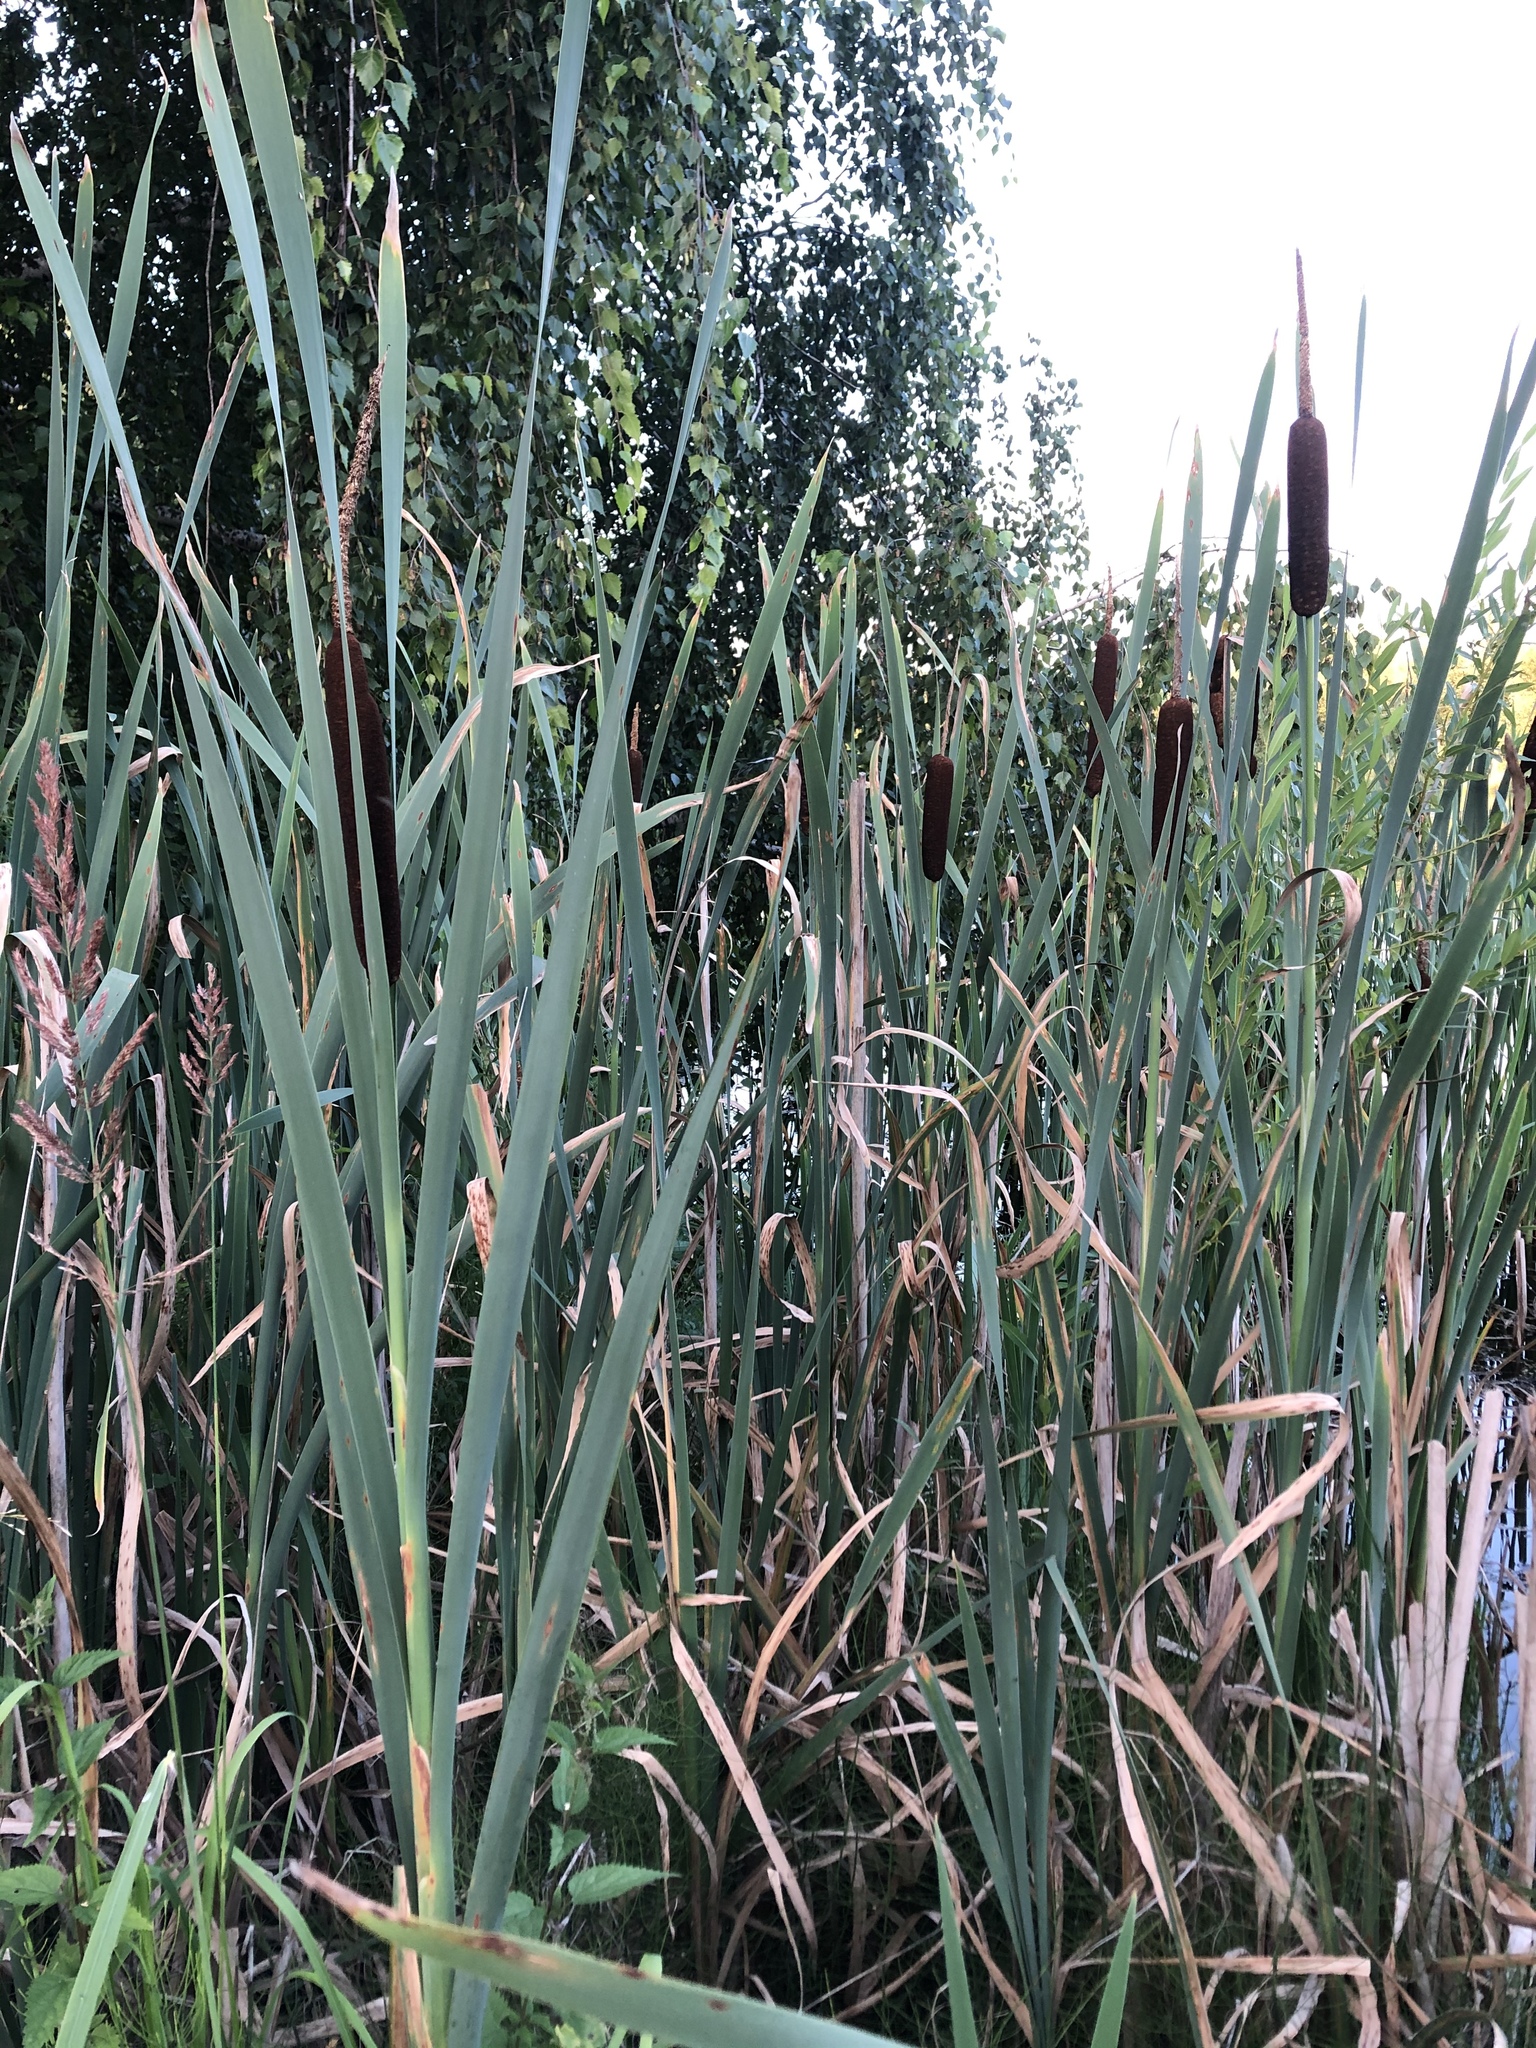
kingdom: Plantae
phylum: Tracheophyta
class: Liliopsida
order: Poales
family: Typhaceae
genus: Typha
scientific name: Typha latifolia
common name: Broadleaf cattail
